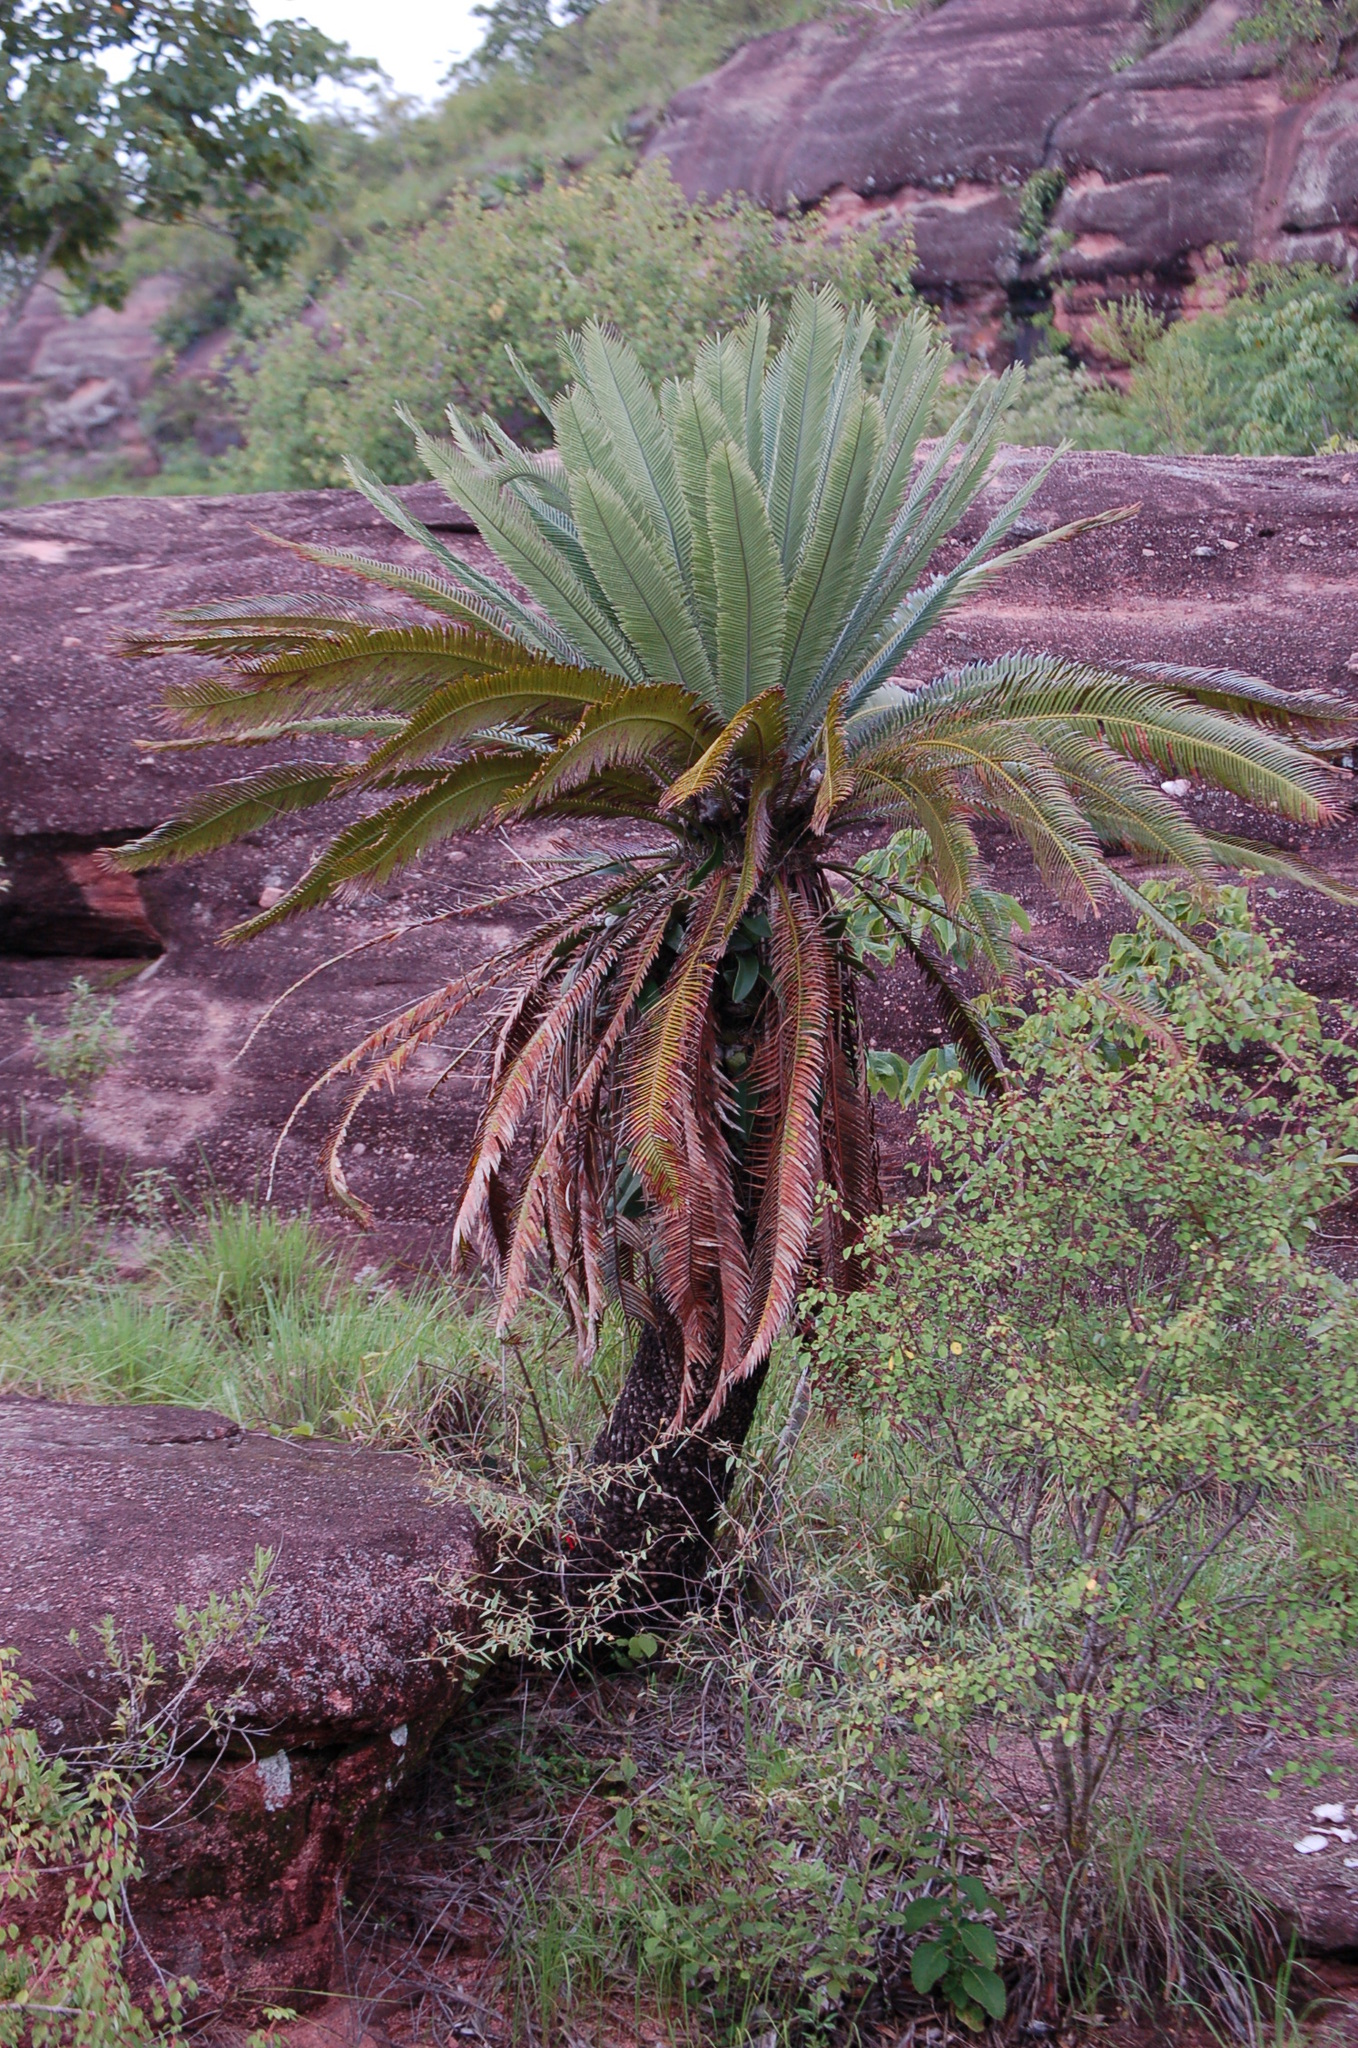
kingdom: Plantae
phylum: Tracheophyta
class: Cycadopsida
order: Cycadales
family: Zamiaceae
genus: Dioon
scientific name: Dioon merolae
